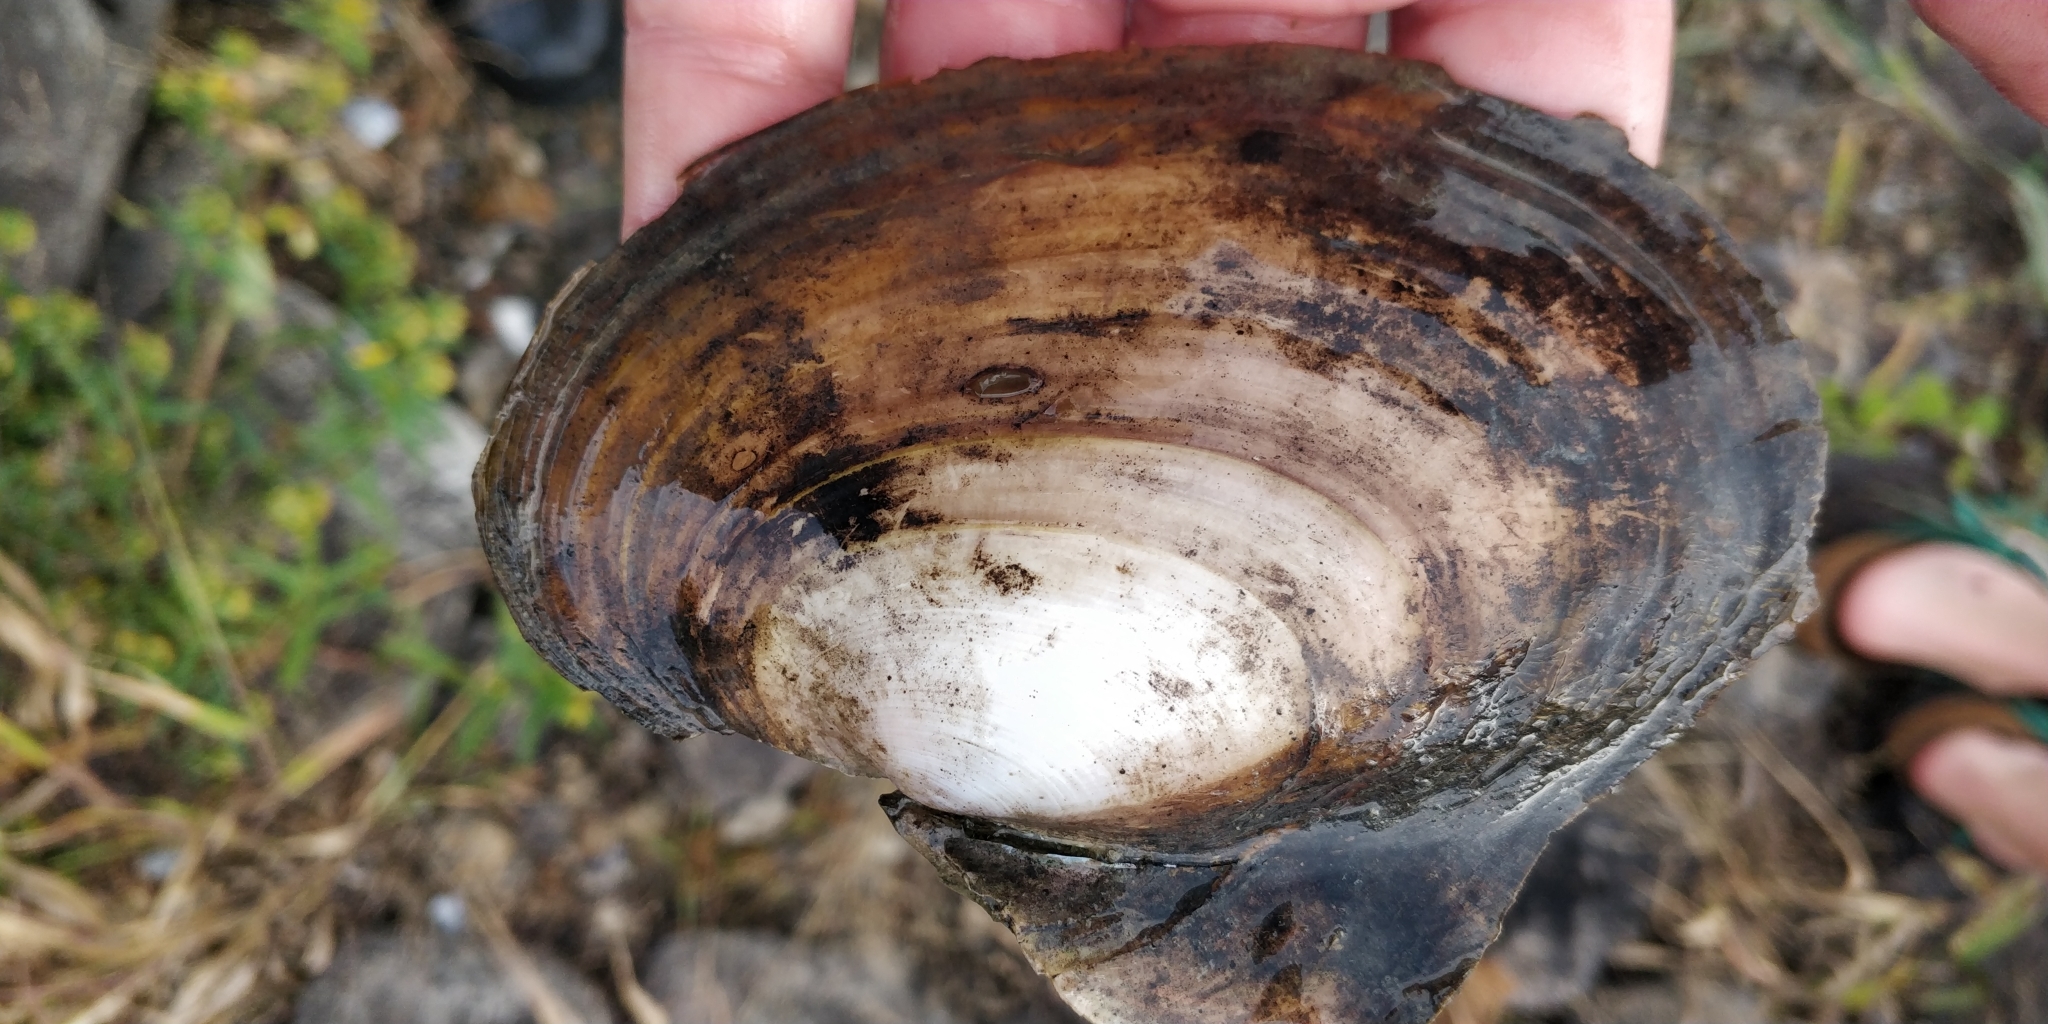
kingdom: Animalia
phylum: Mollusca
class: Bivalvia
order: Unionida
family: Unionidae
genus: Potamilus
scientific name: Potamilus ohiensis
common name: Pink papershell
